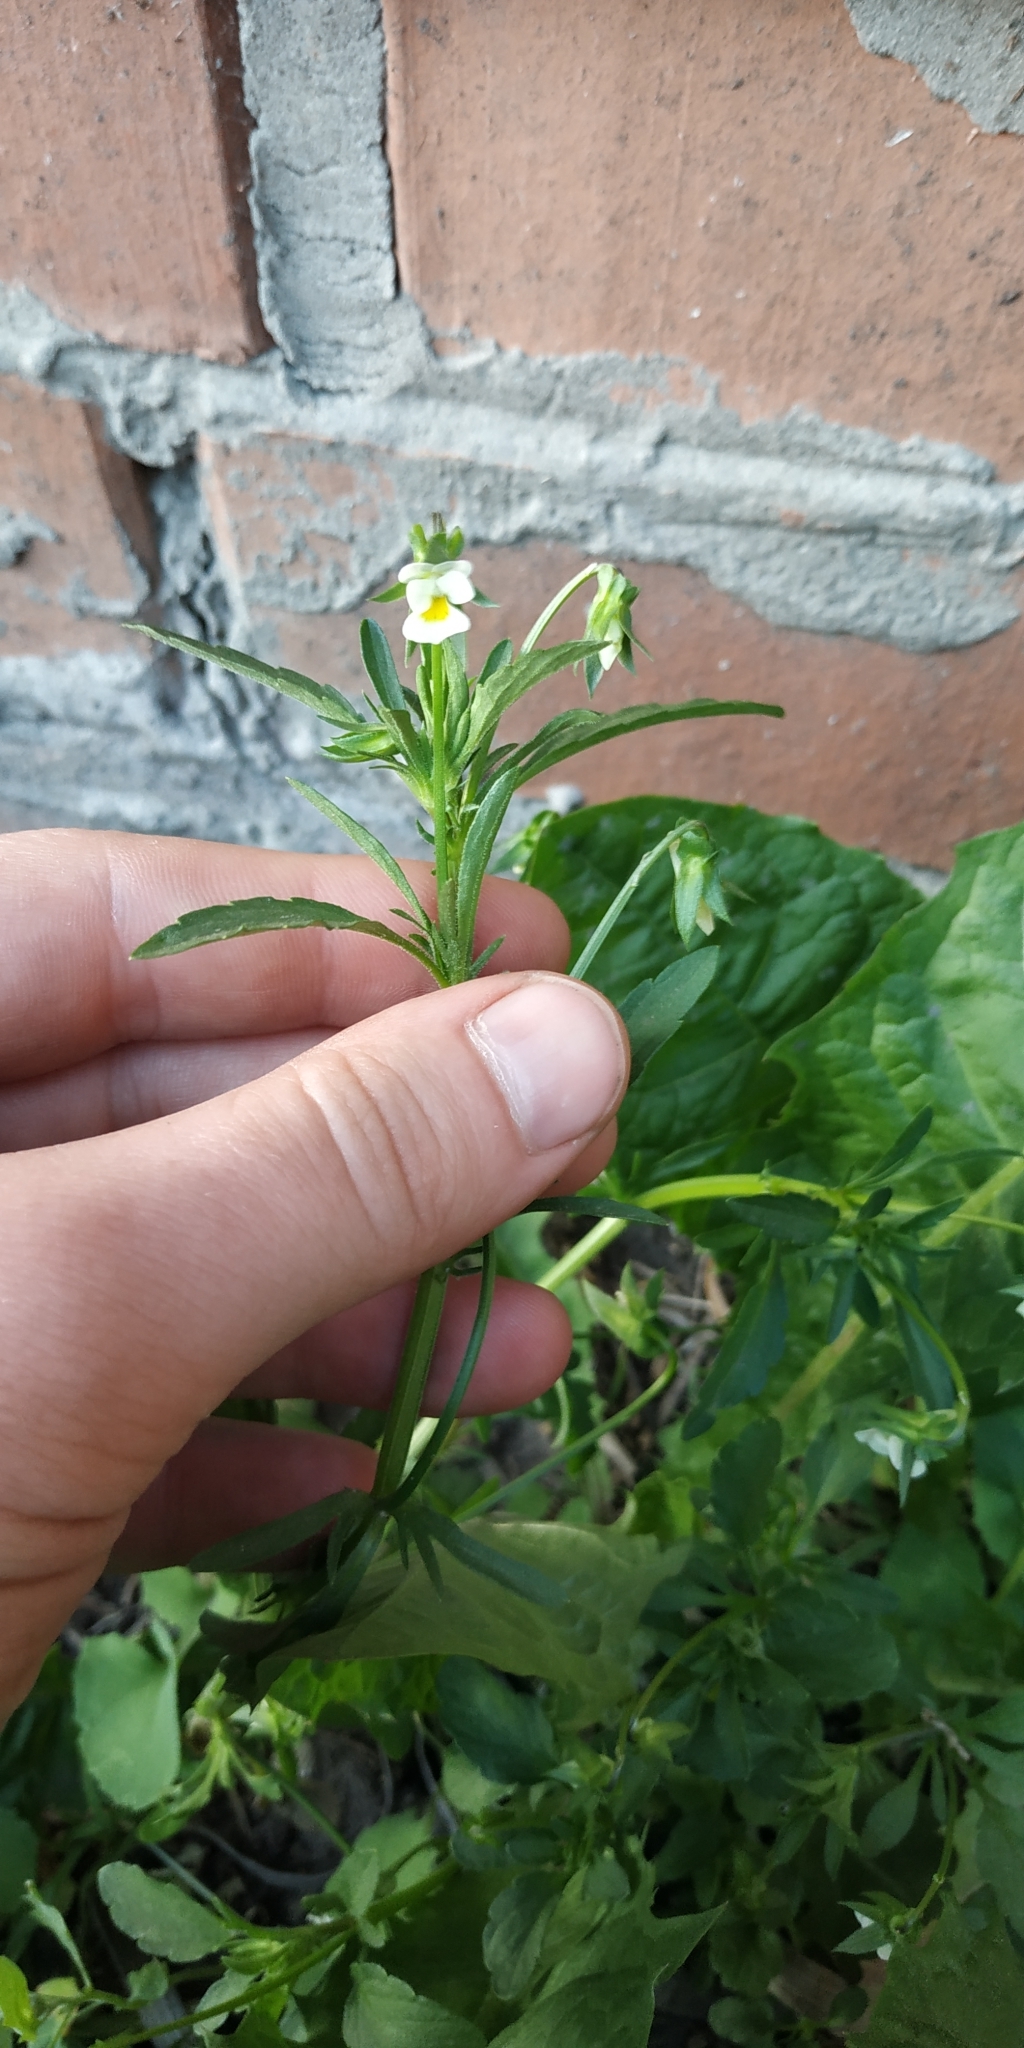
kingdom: Plantae
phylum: Tracheophyta
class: Magnoliopsida
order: Malpighiales
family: Violaceae
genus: Viola
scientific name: Viola arvensis
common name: Field pansy
